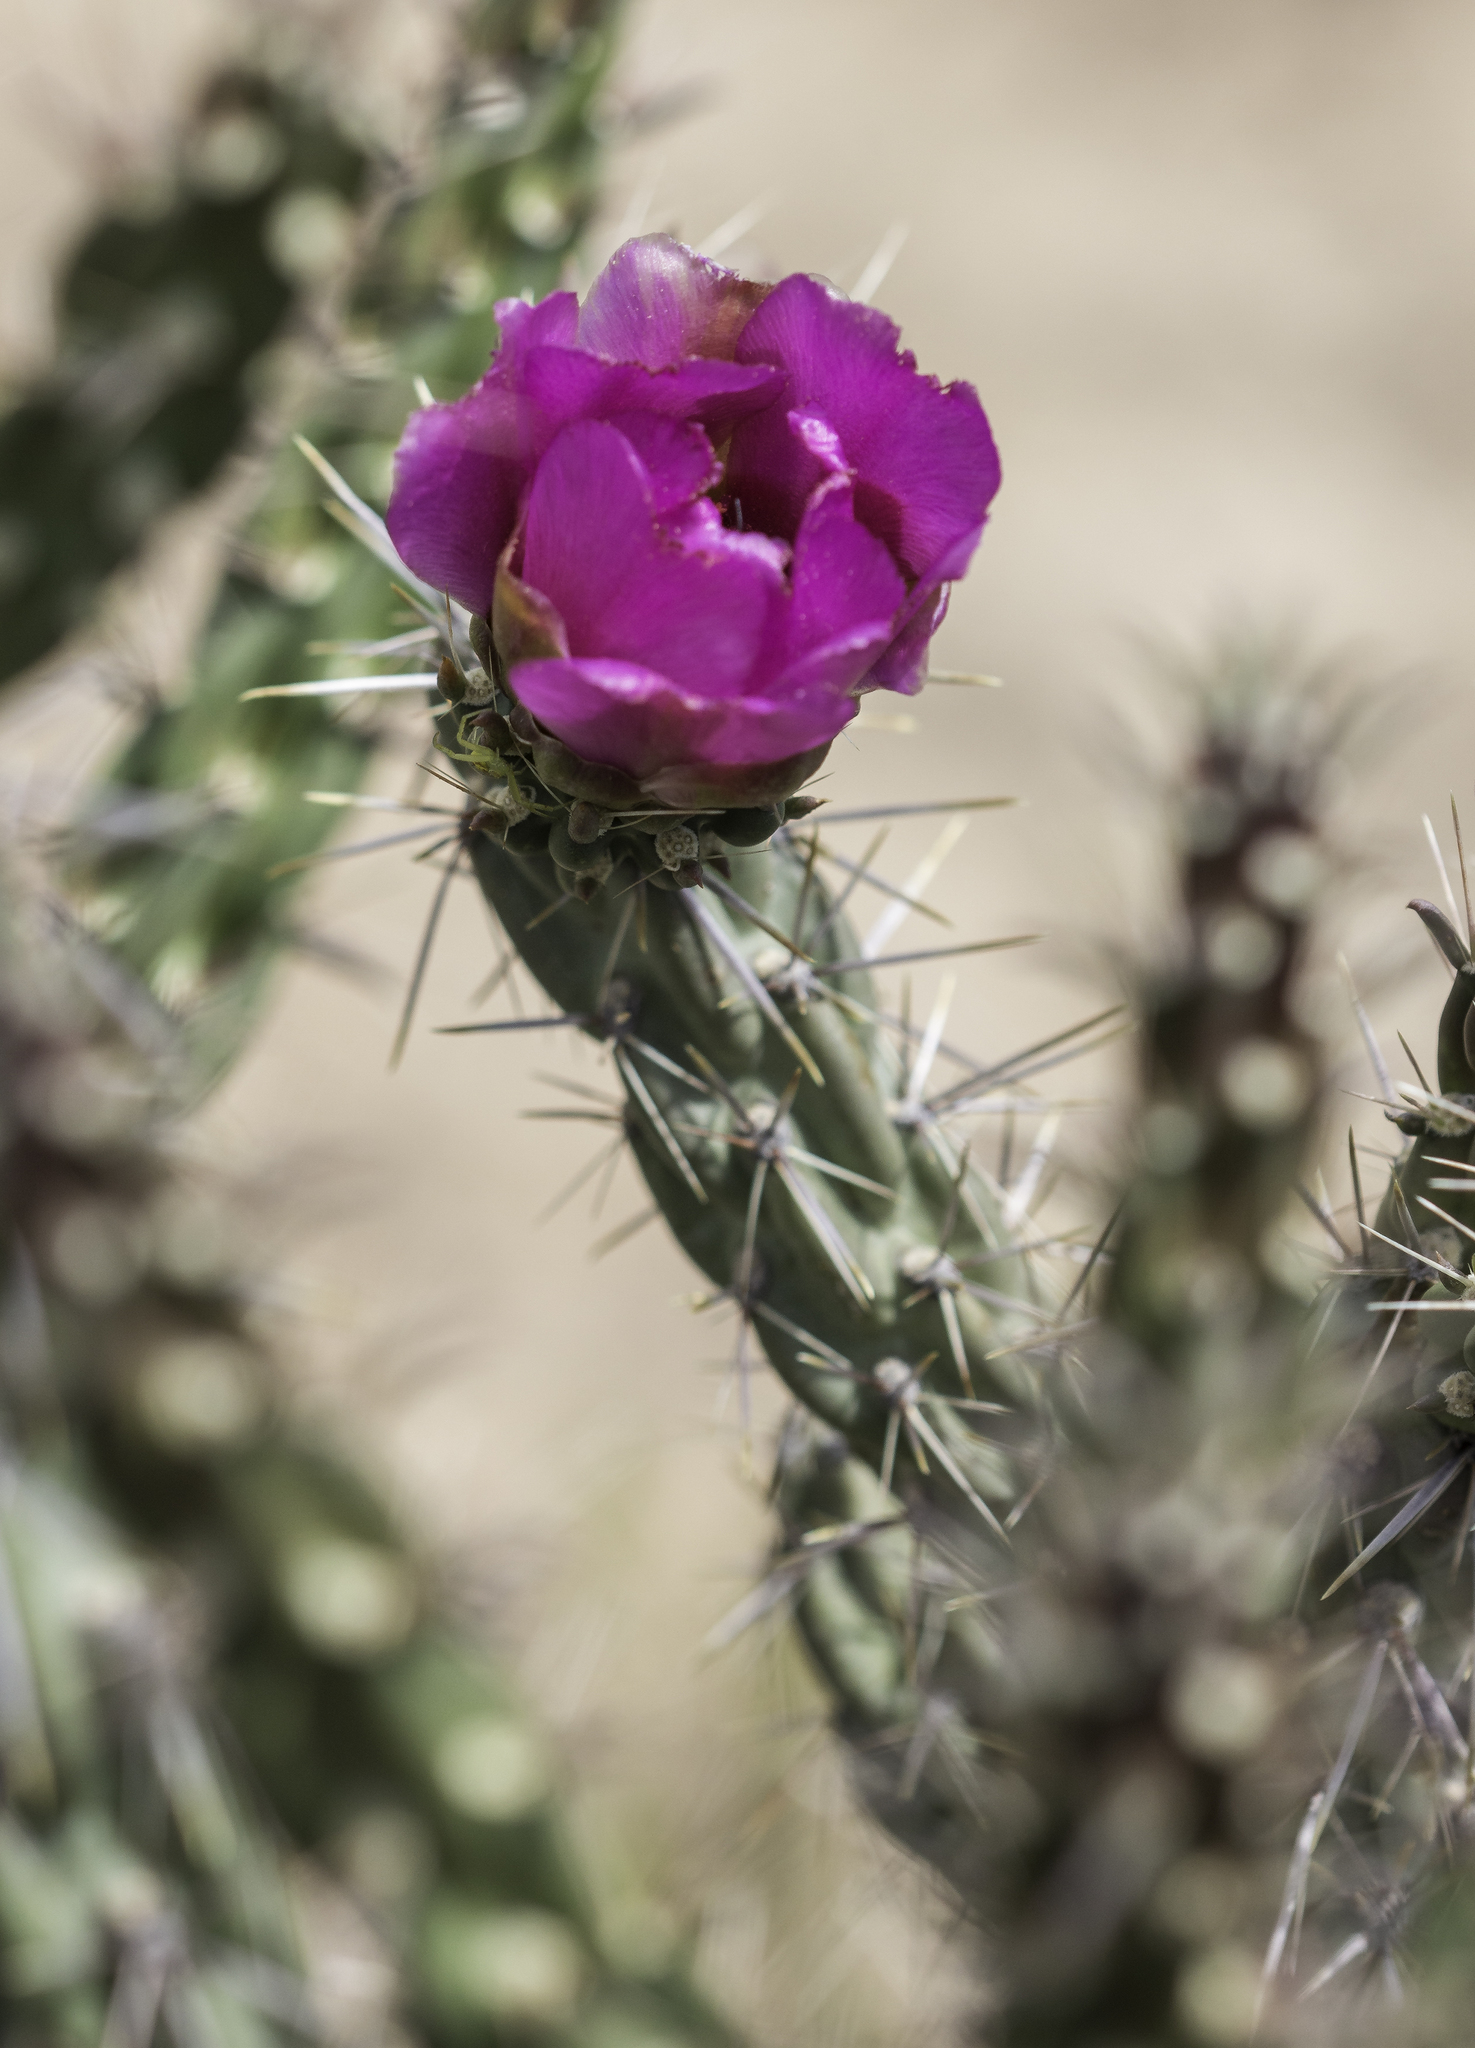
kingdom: Plantae
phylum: Tracheophyta
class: Magnoliopsida
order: Caryophyllales
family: Cactaceae
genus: Cylindropuntia
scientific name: Cylindropuntia imbricata
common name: Candelabrum cactus
